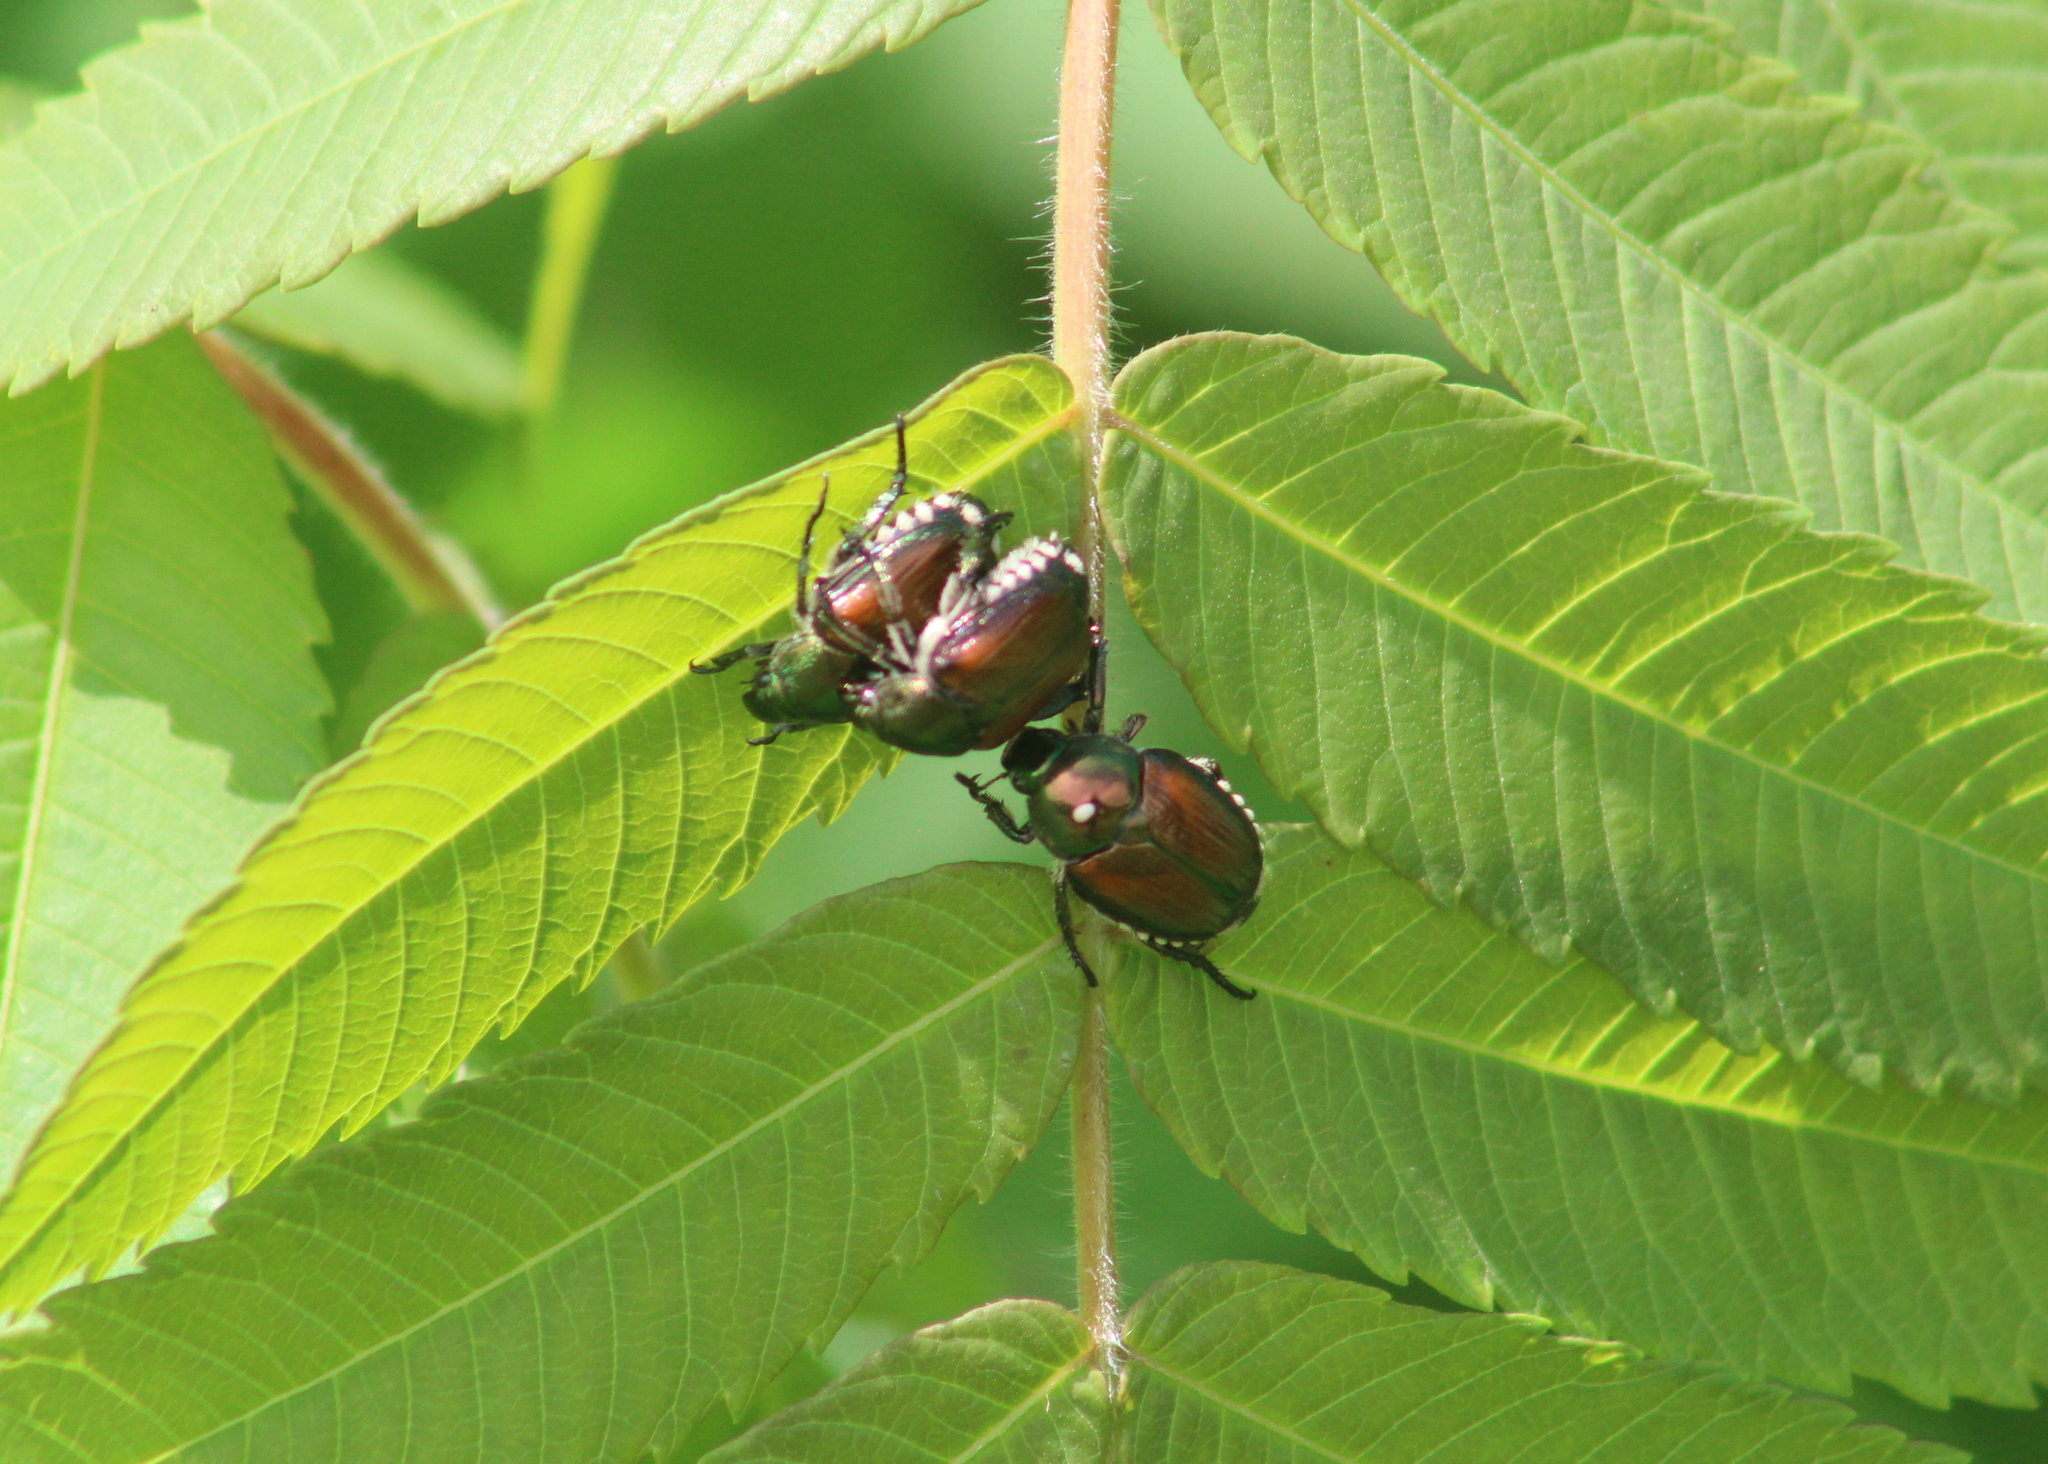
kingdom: Animalia
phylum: Arthropoda
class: Insecta
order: Diptera
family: Tachinidae
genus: Istocheta
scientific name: Istocheta aldrichi
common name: Parasitic wasp
